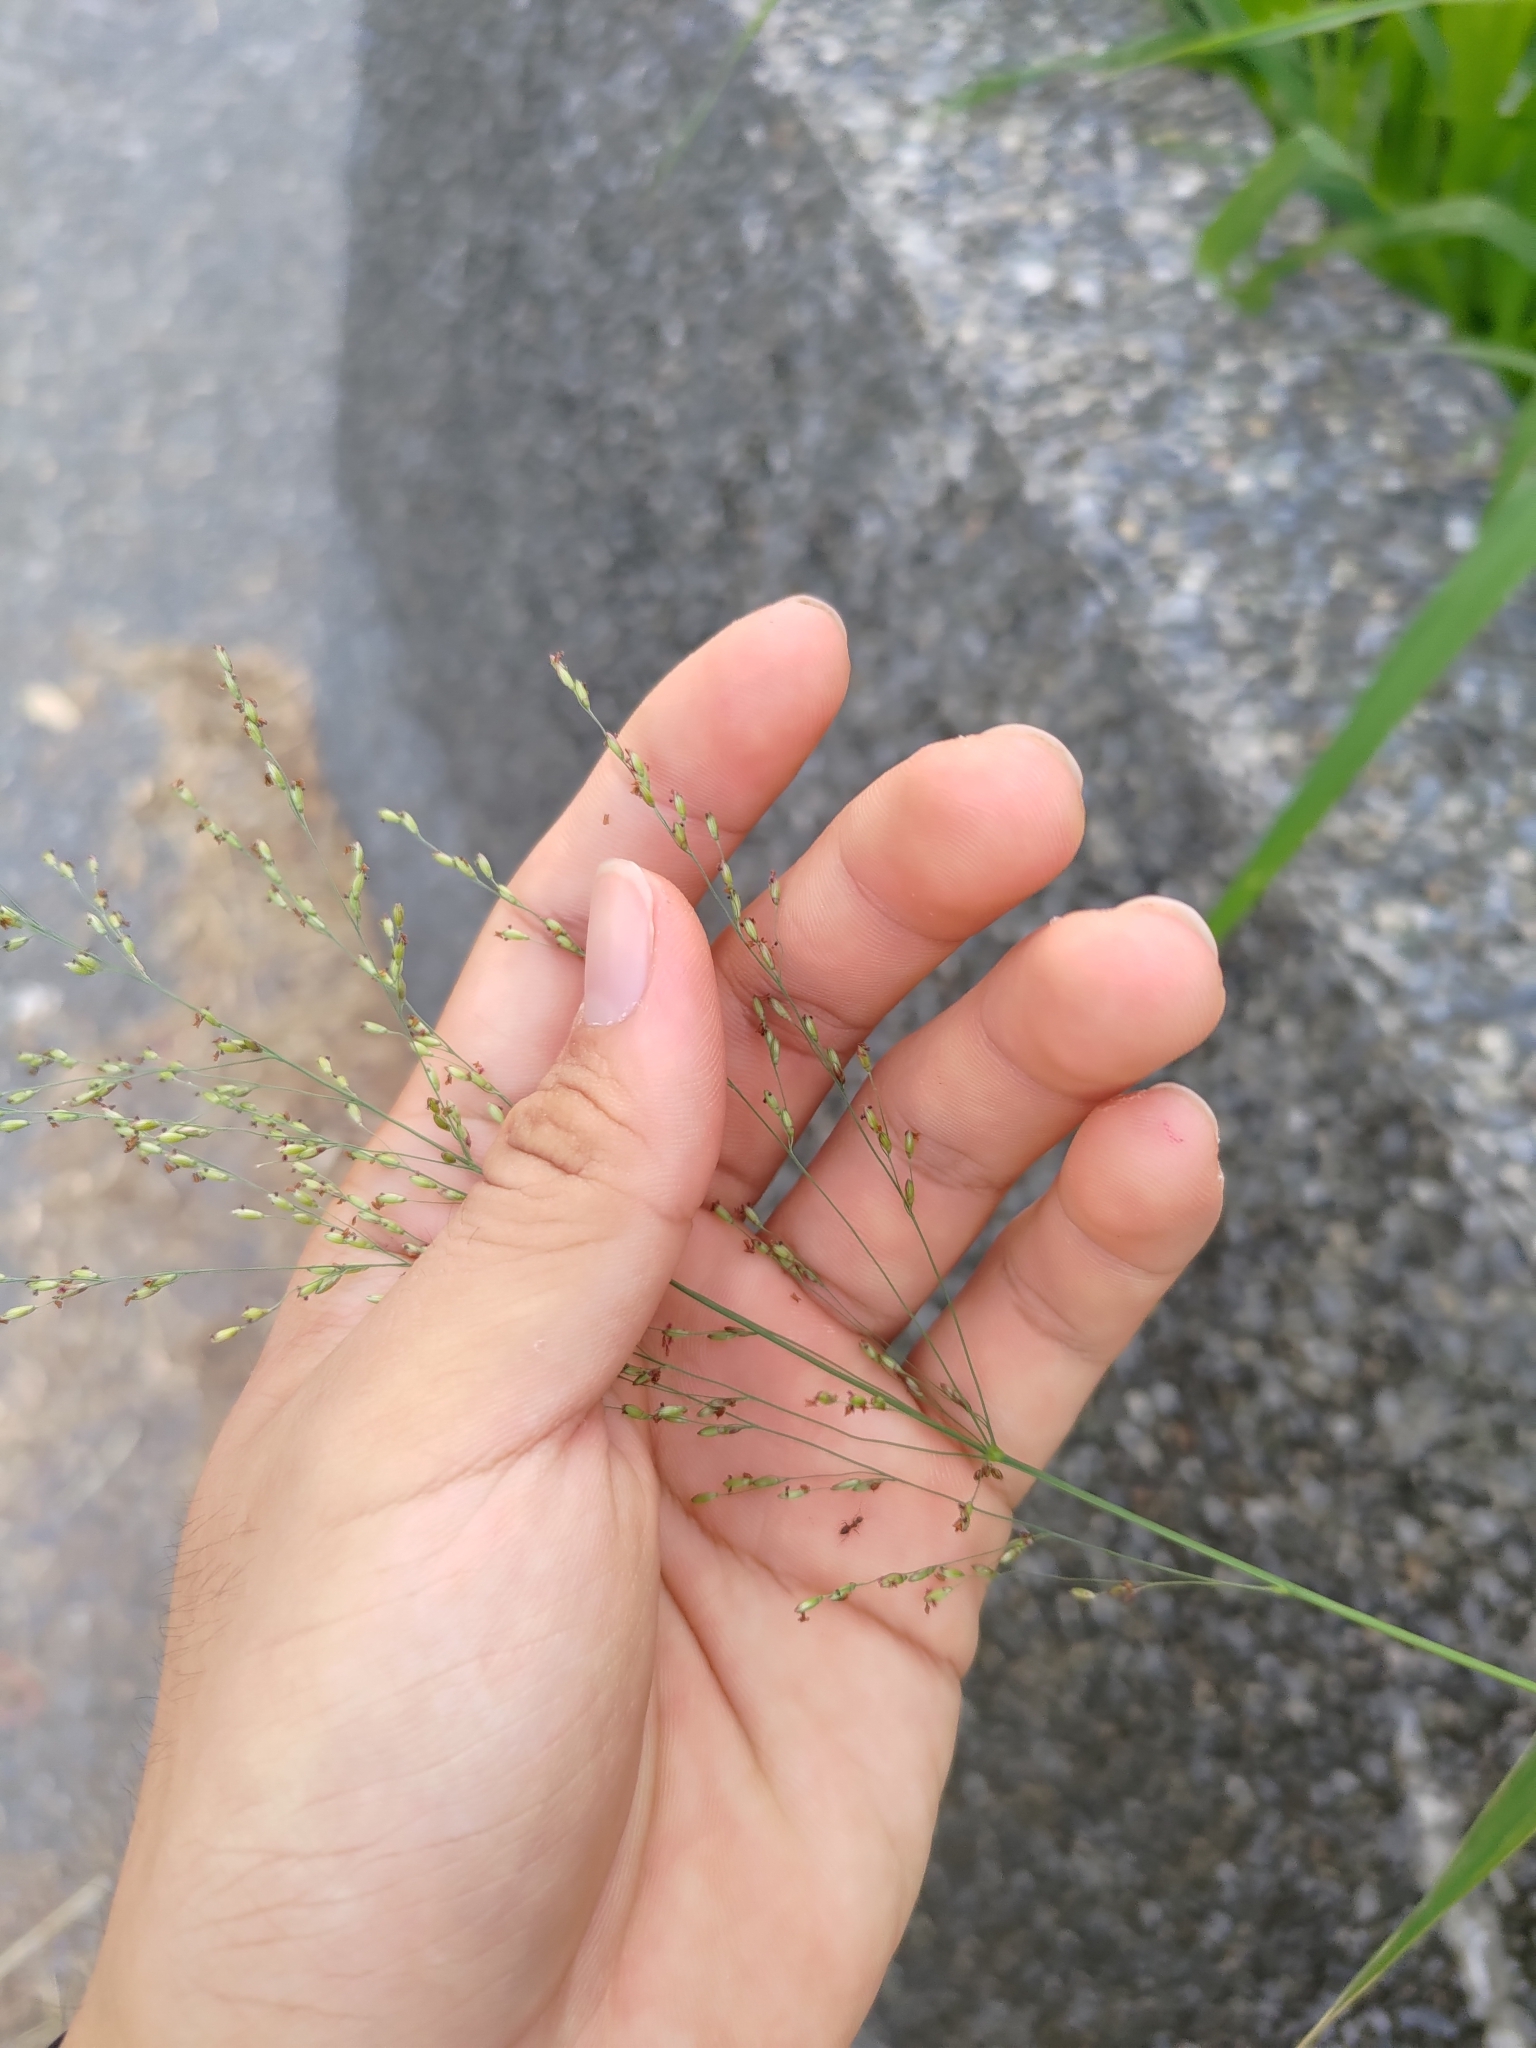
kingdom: Plantae
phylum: Tracheophyta
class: Liliopsida
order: Poales
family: Poaceae
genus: Megathyrsus
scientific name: Megathyrsus maximus
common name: Guineagrass
